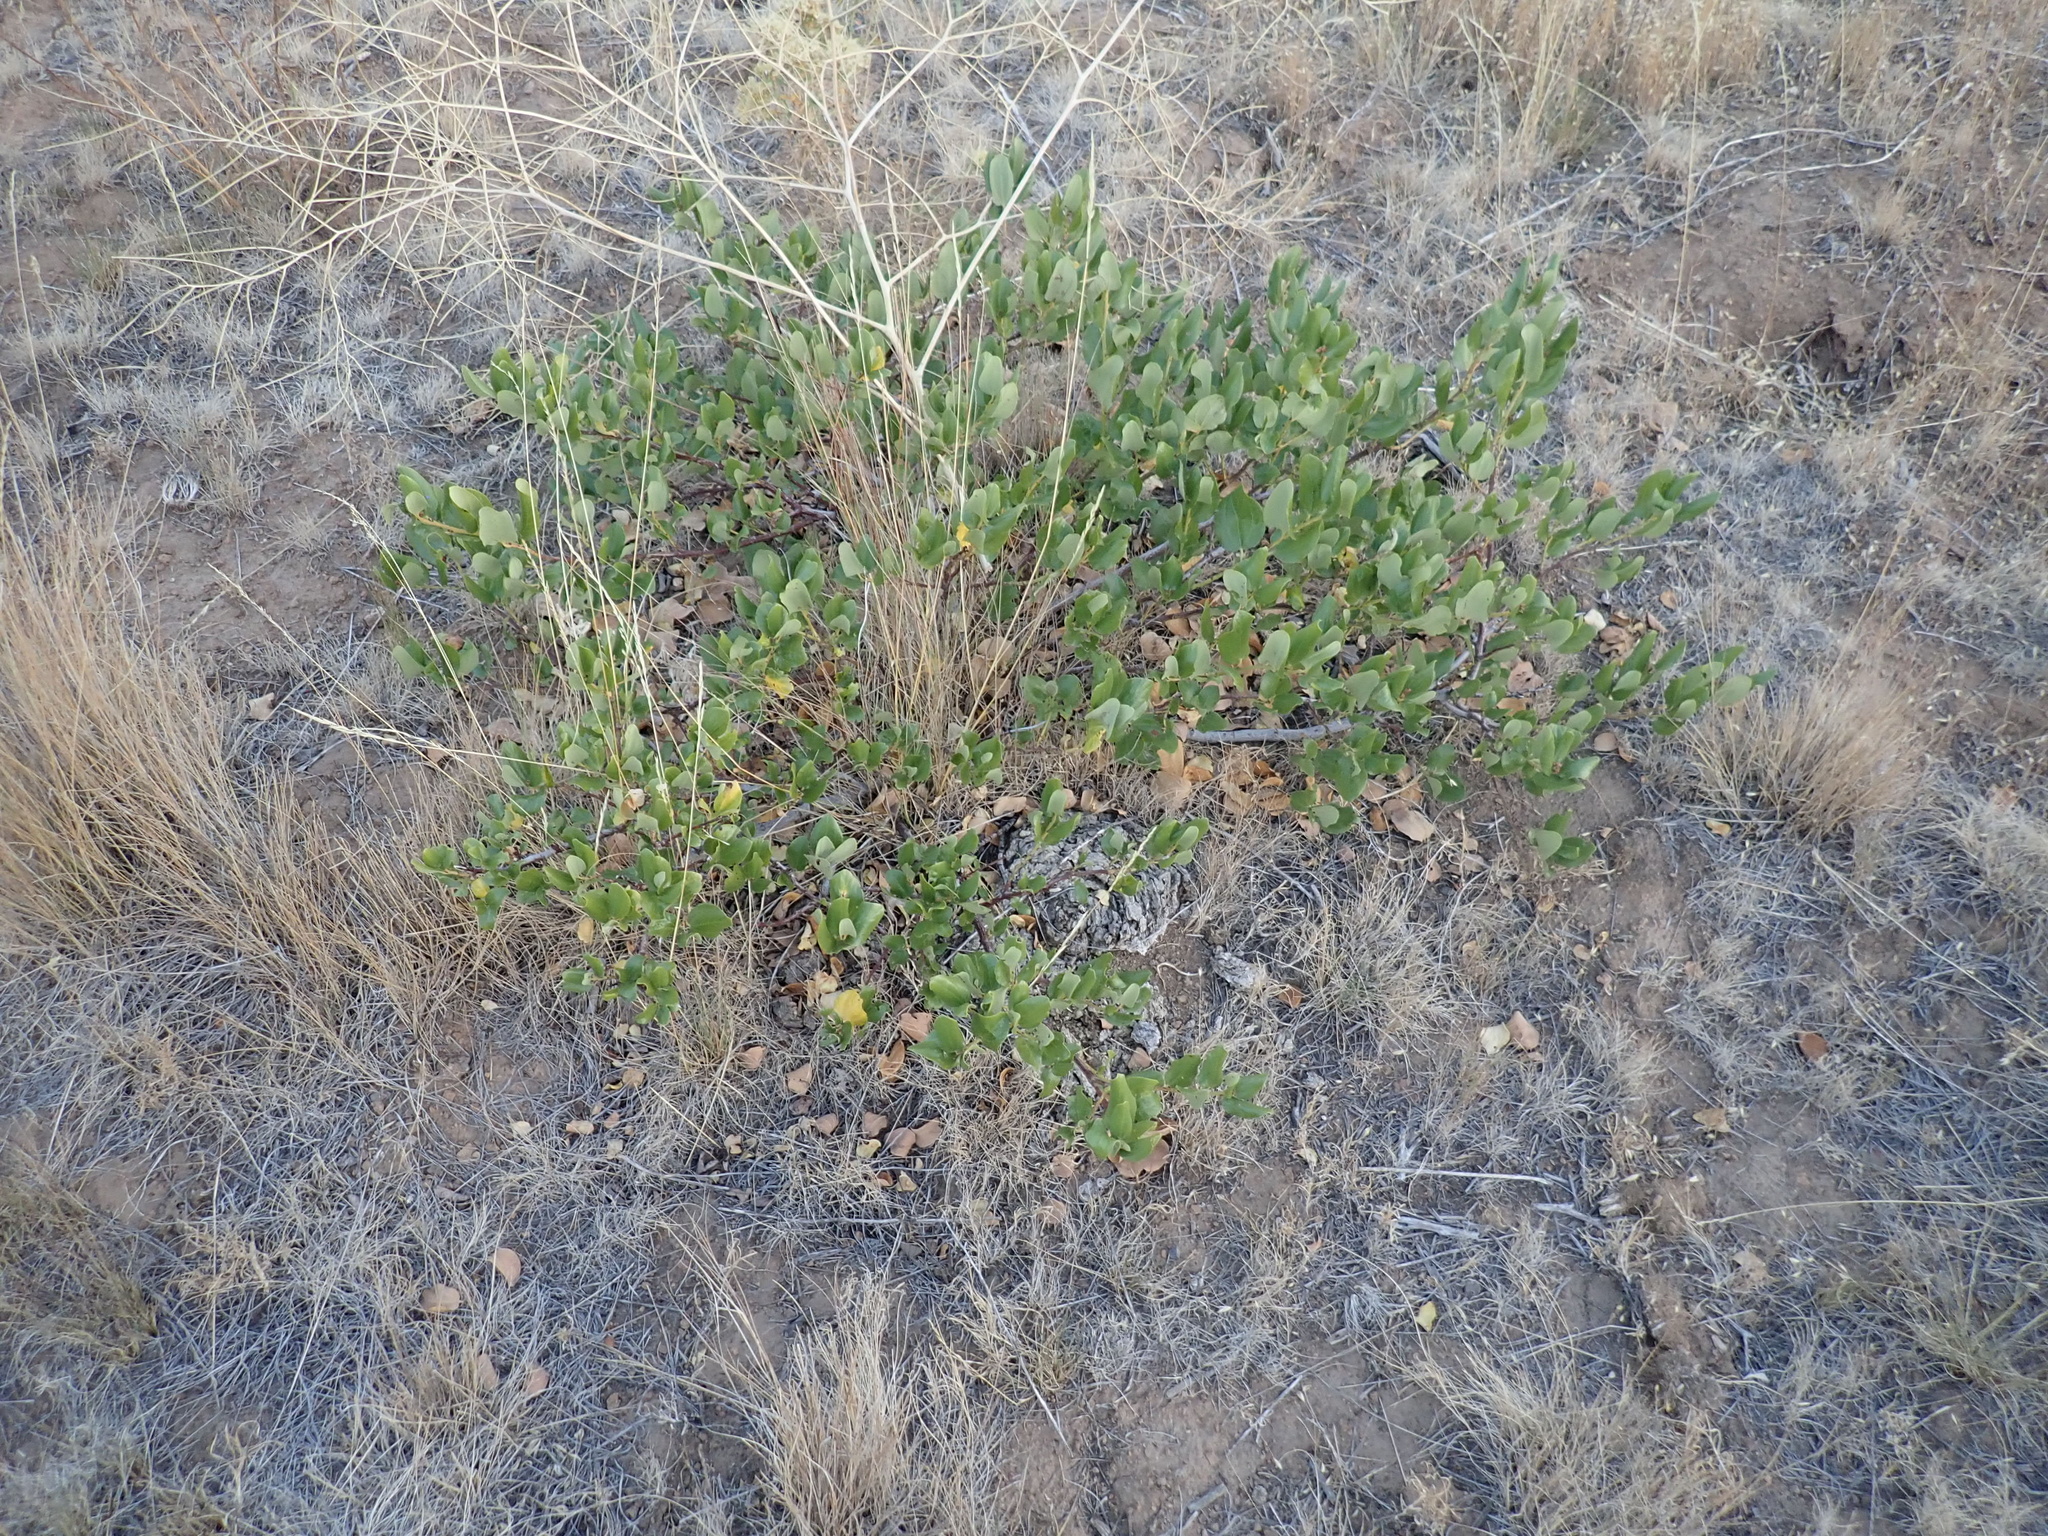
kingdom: Plantae
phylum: Tracheophyta
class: Magnoliopsida
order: Rosales
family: Rhamnaceae
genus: Ceanothus
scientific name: Ceanothus velutinus
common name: Snowbrush
